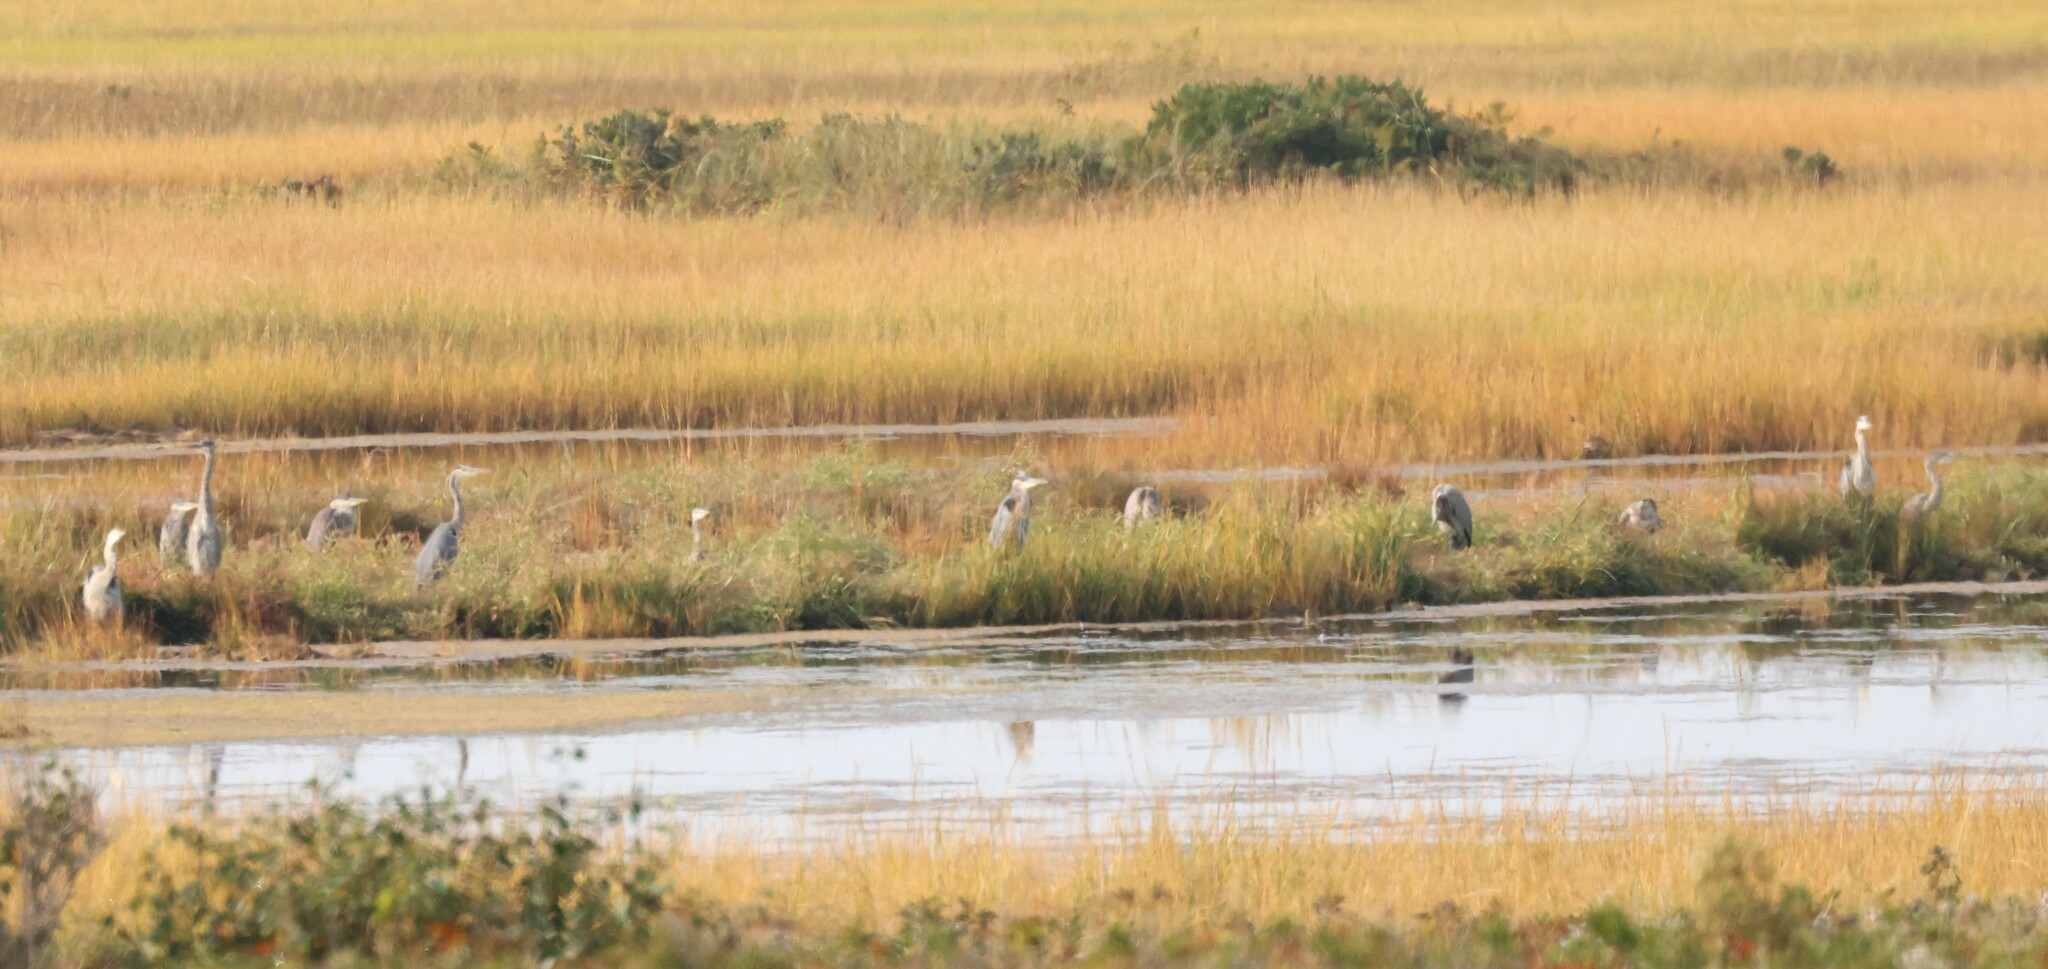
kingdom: Animalia
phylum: Chordata
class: Aves
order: Pelecaniformes
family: Ardeidae
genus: Ardea
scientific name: Ardea herodias
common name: Great blue heron
